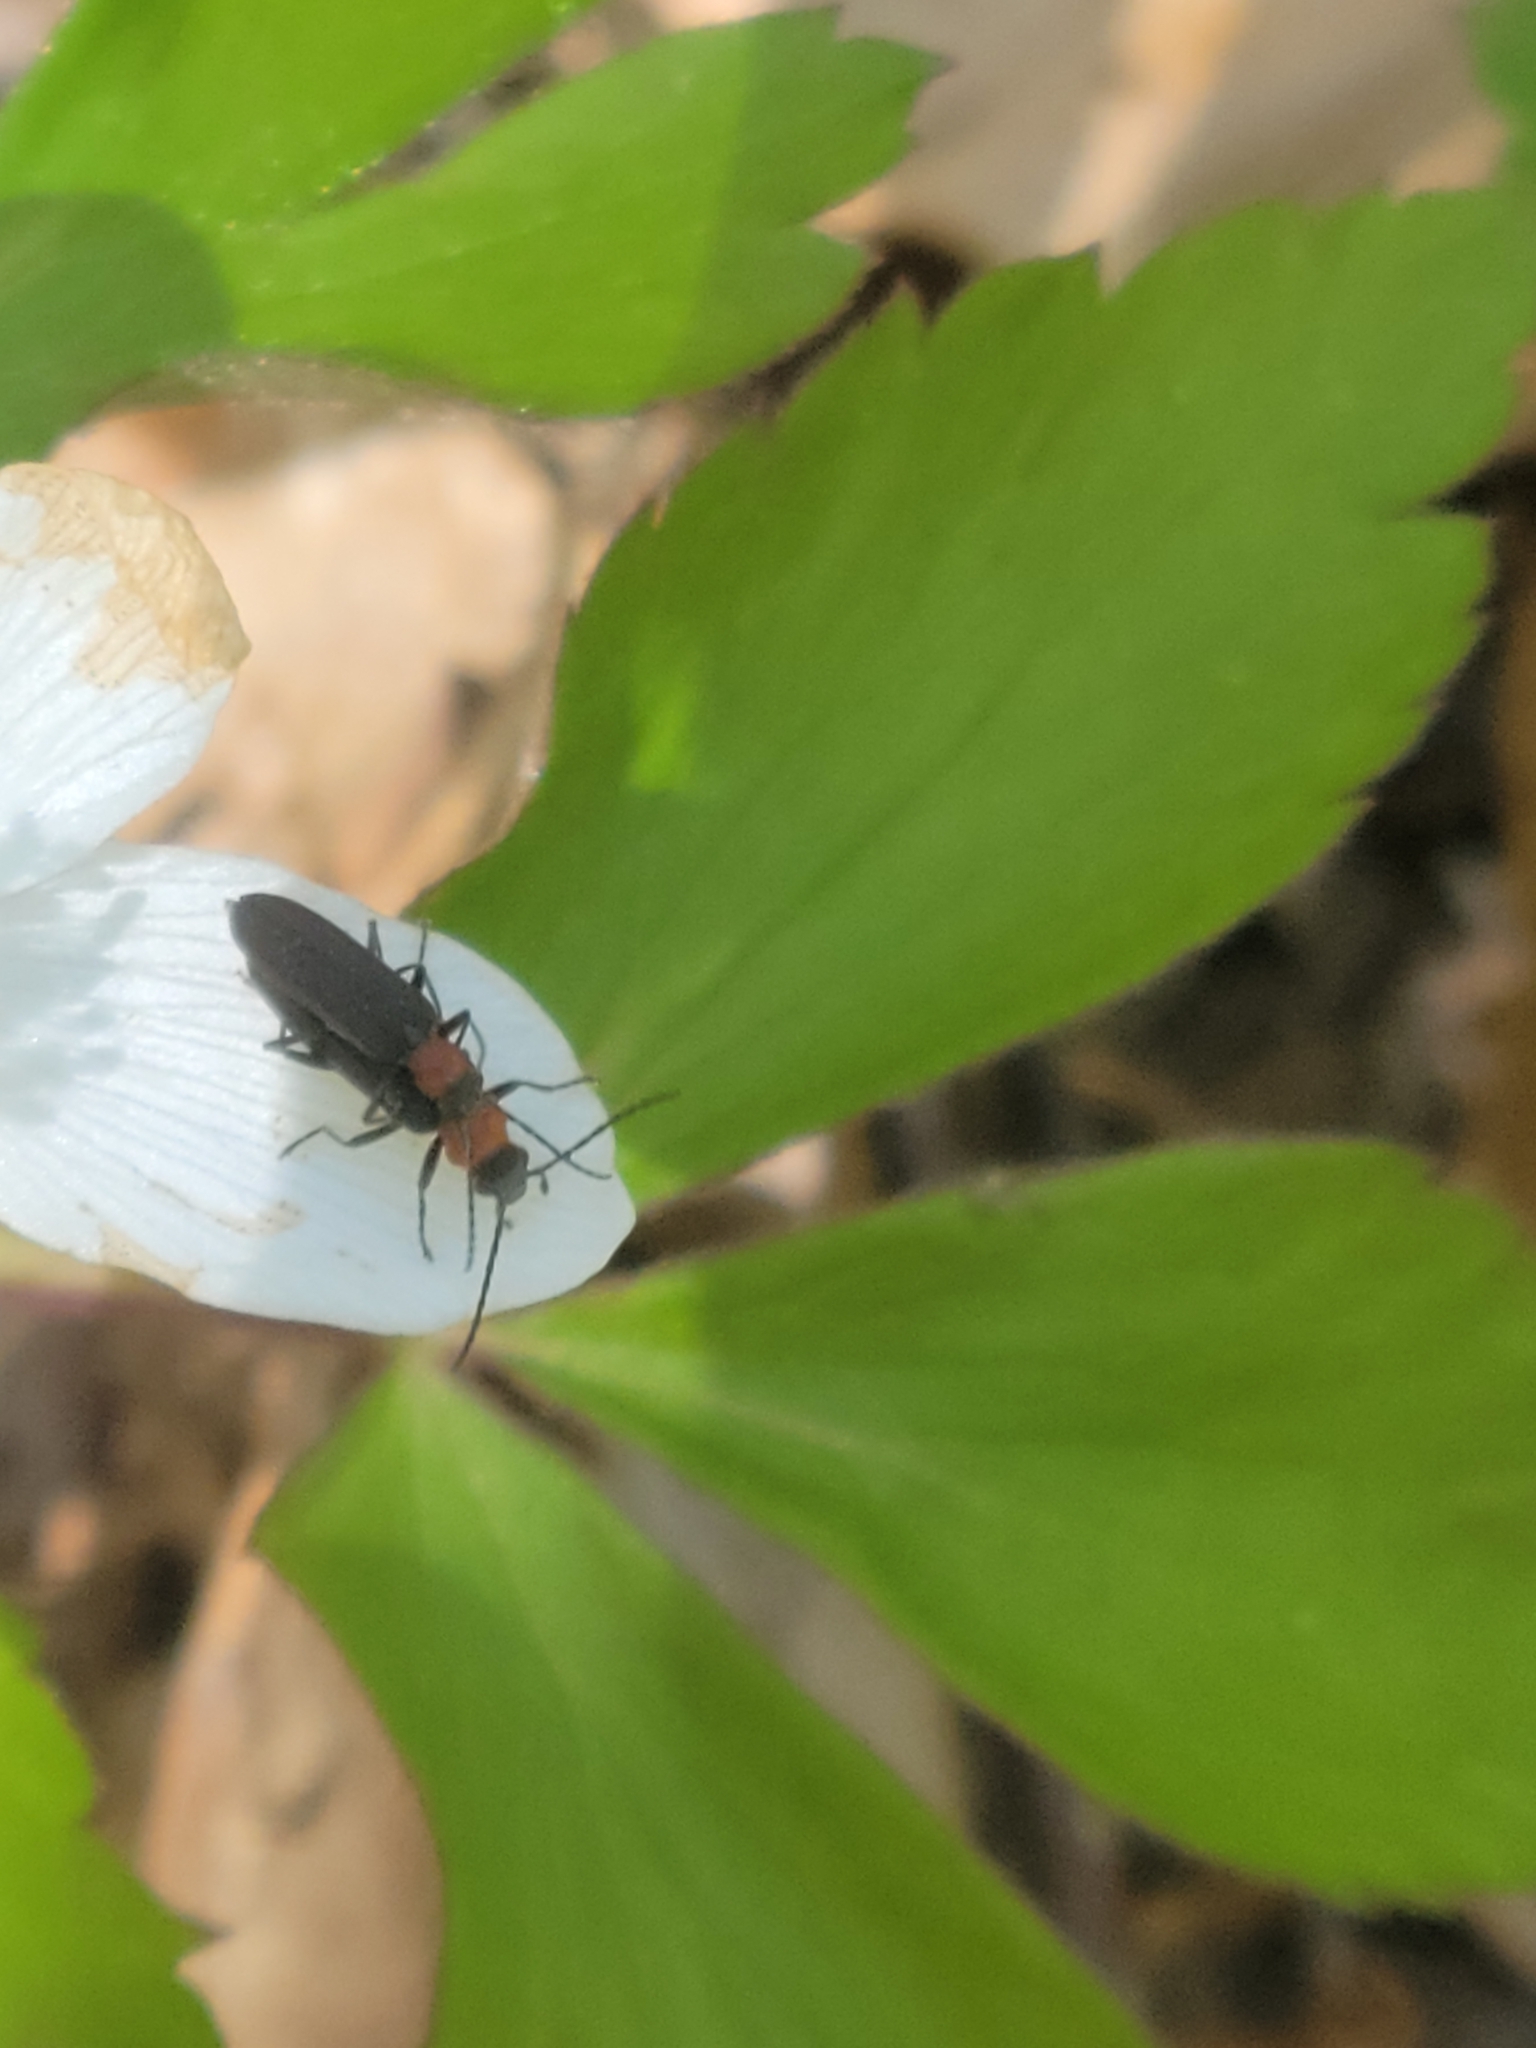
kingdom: Animalia
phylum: Arthropoda
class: Insecta
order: Coleoptera
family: Oedemeridae
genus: Ischnomera
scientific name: Ischnomera
